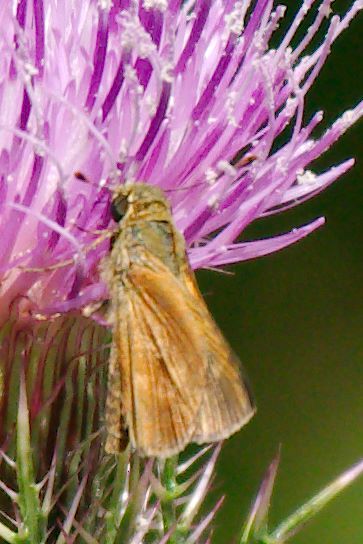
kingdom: Animalia
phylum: Arthropoda
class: Insecta
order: Lepidoptera
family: Hesperiidae
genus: Polites
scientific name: Polites otho
